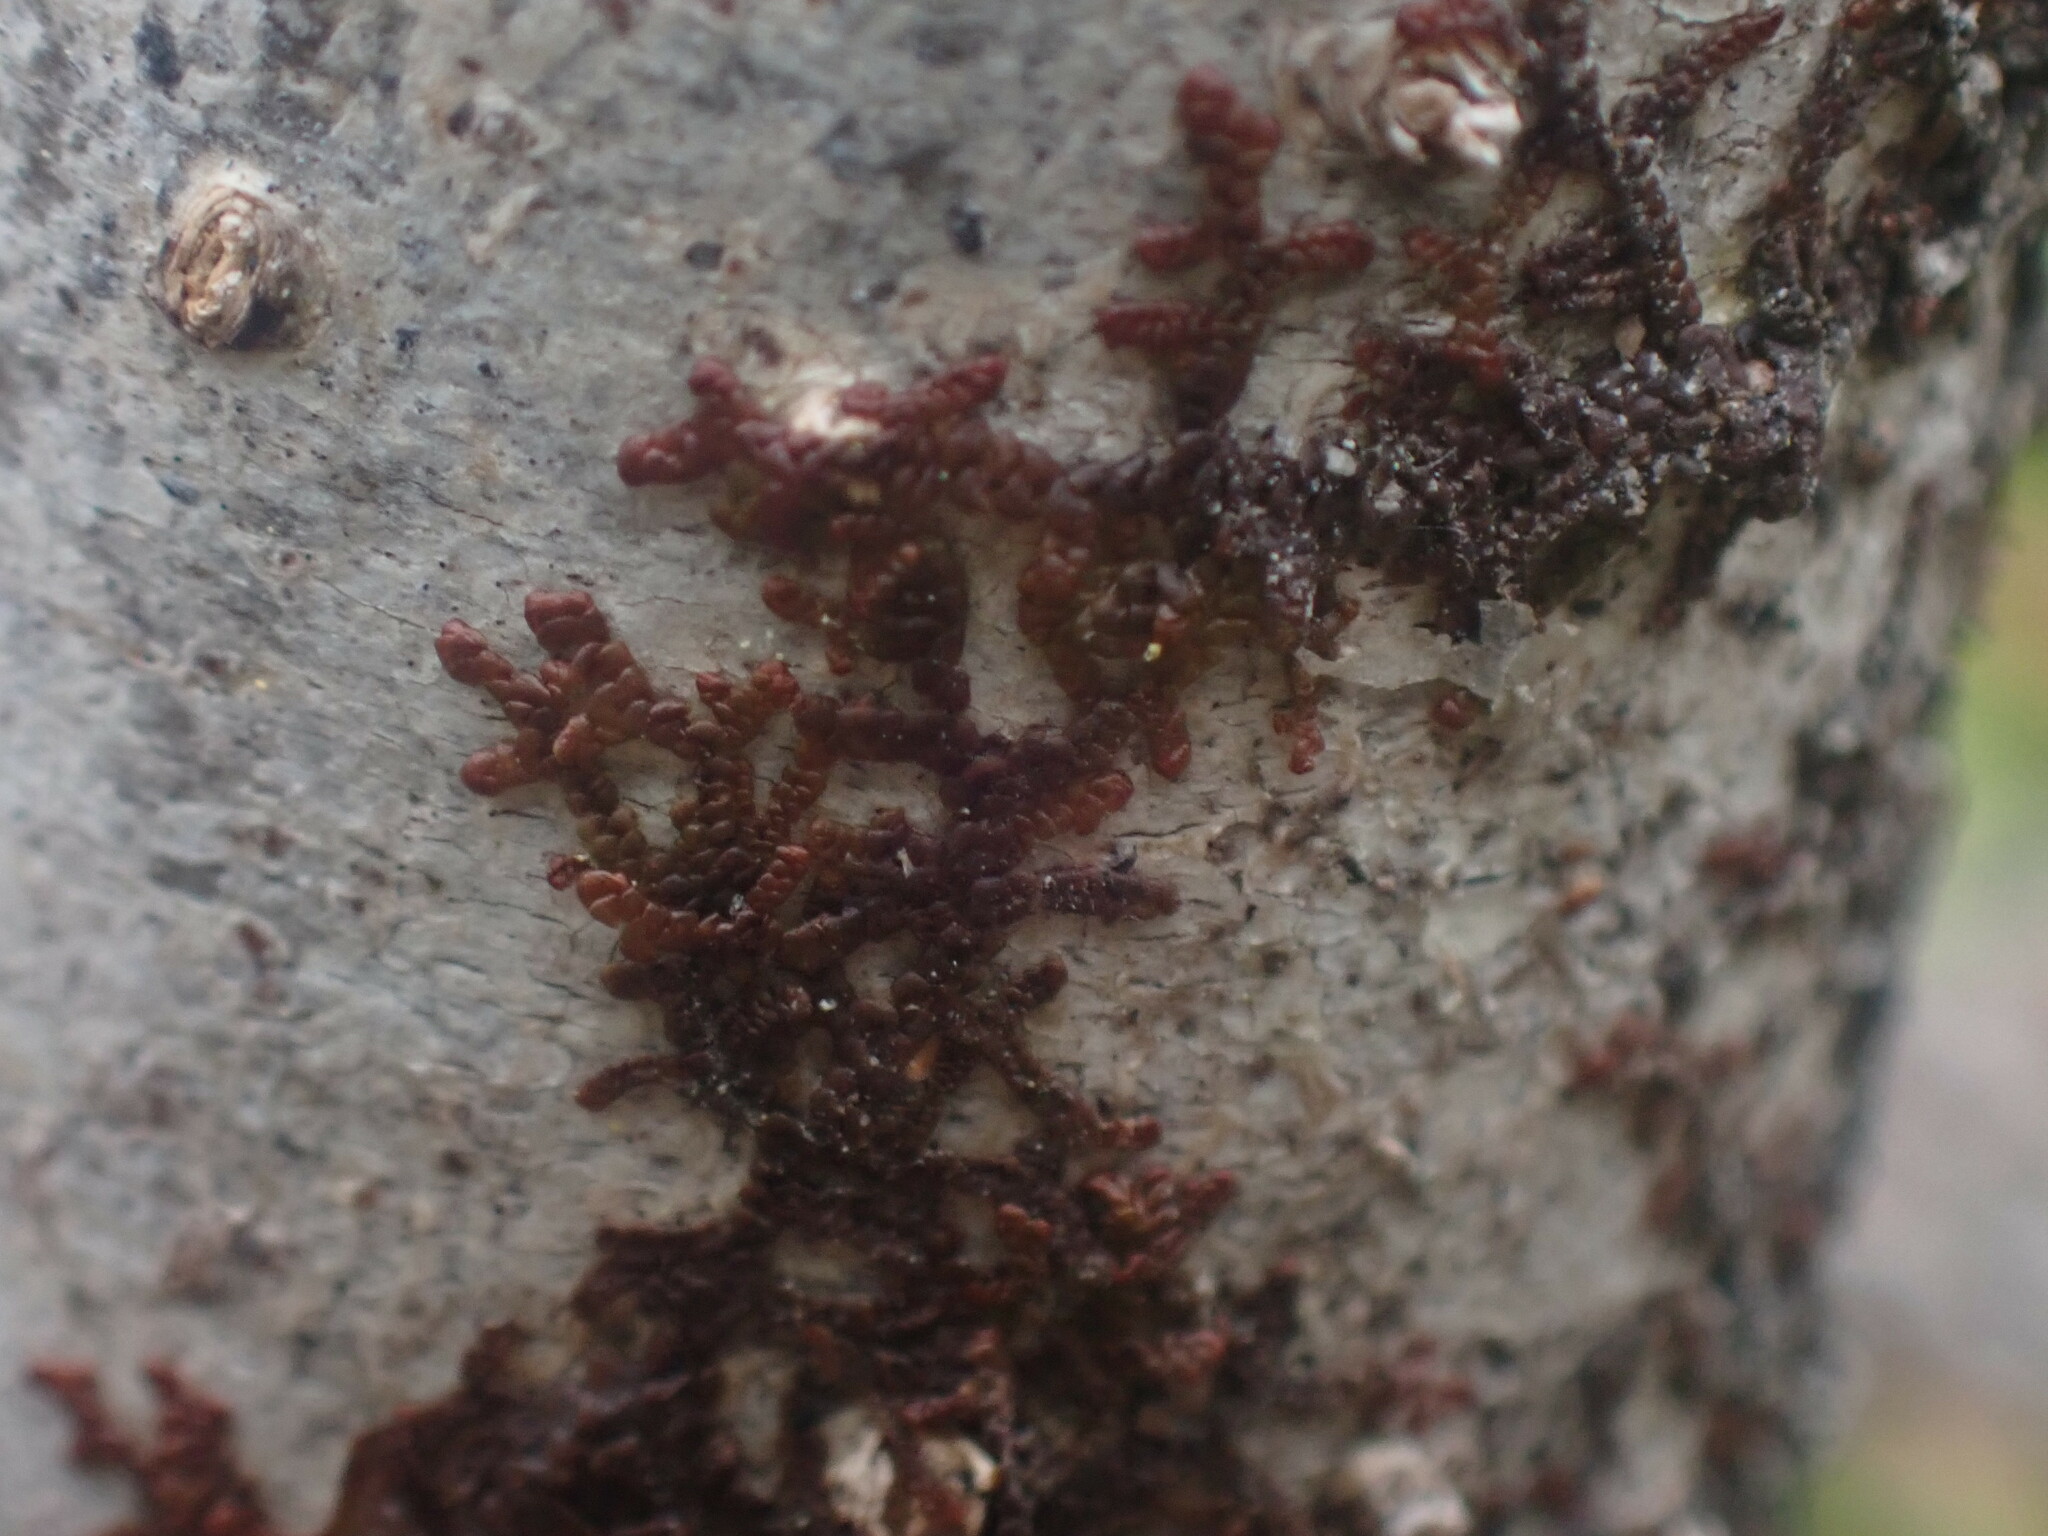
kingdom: Plantae
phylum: Marchantiophyta
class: Jungermanniopsida
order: Porellales
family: Frullaniaceae
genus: Frullania
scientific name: Frullania nisquallensis
